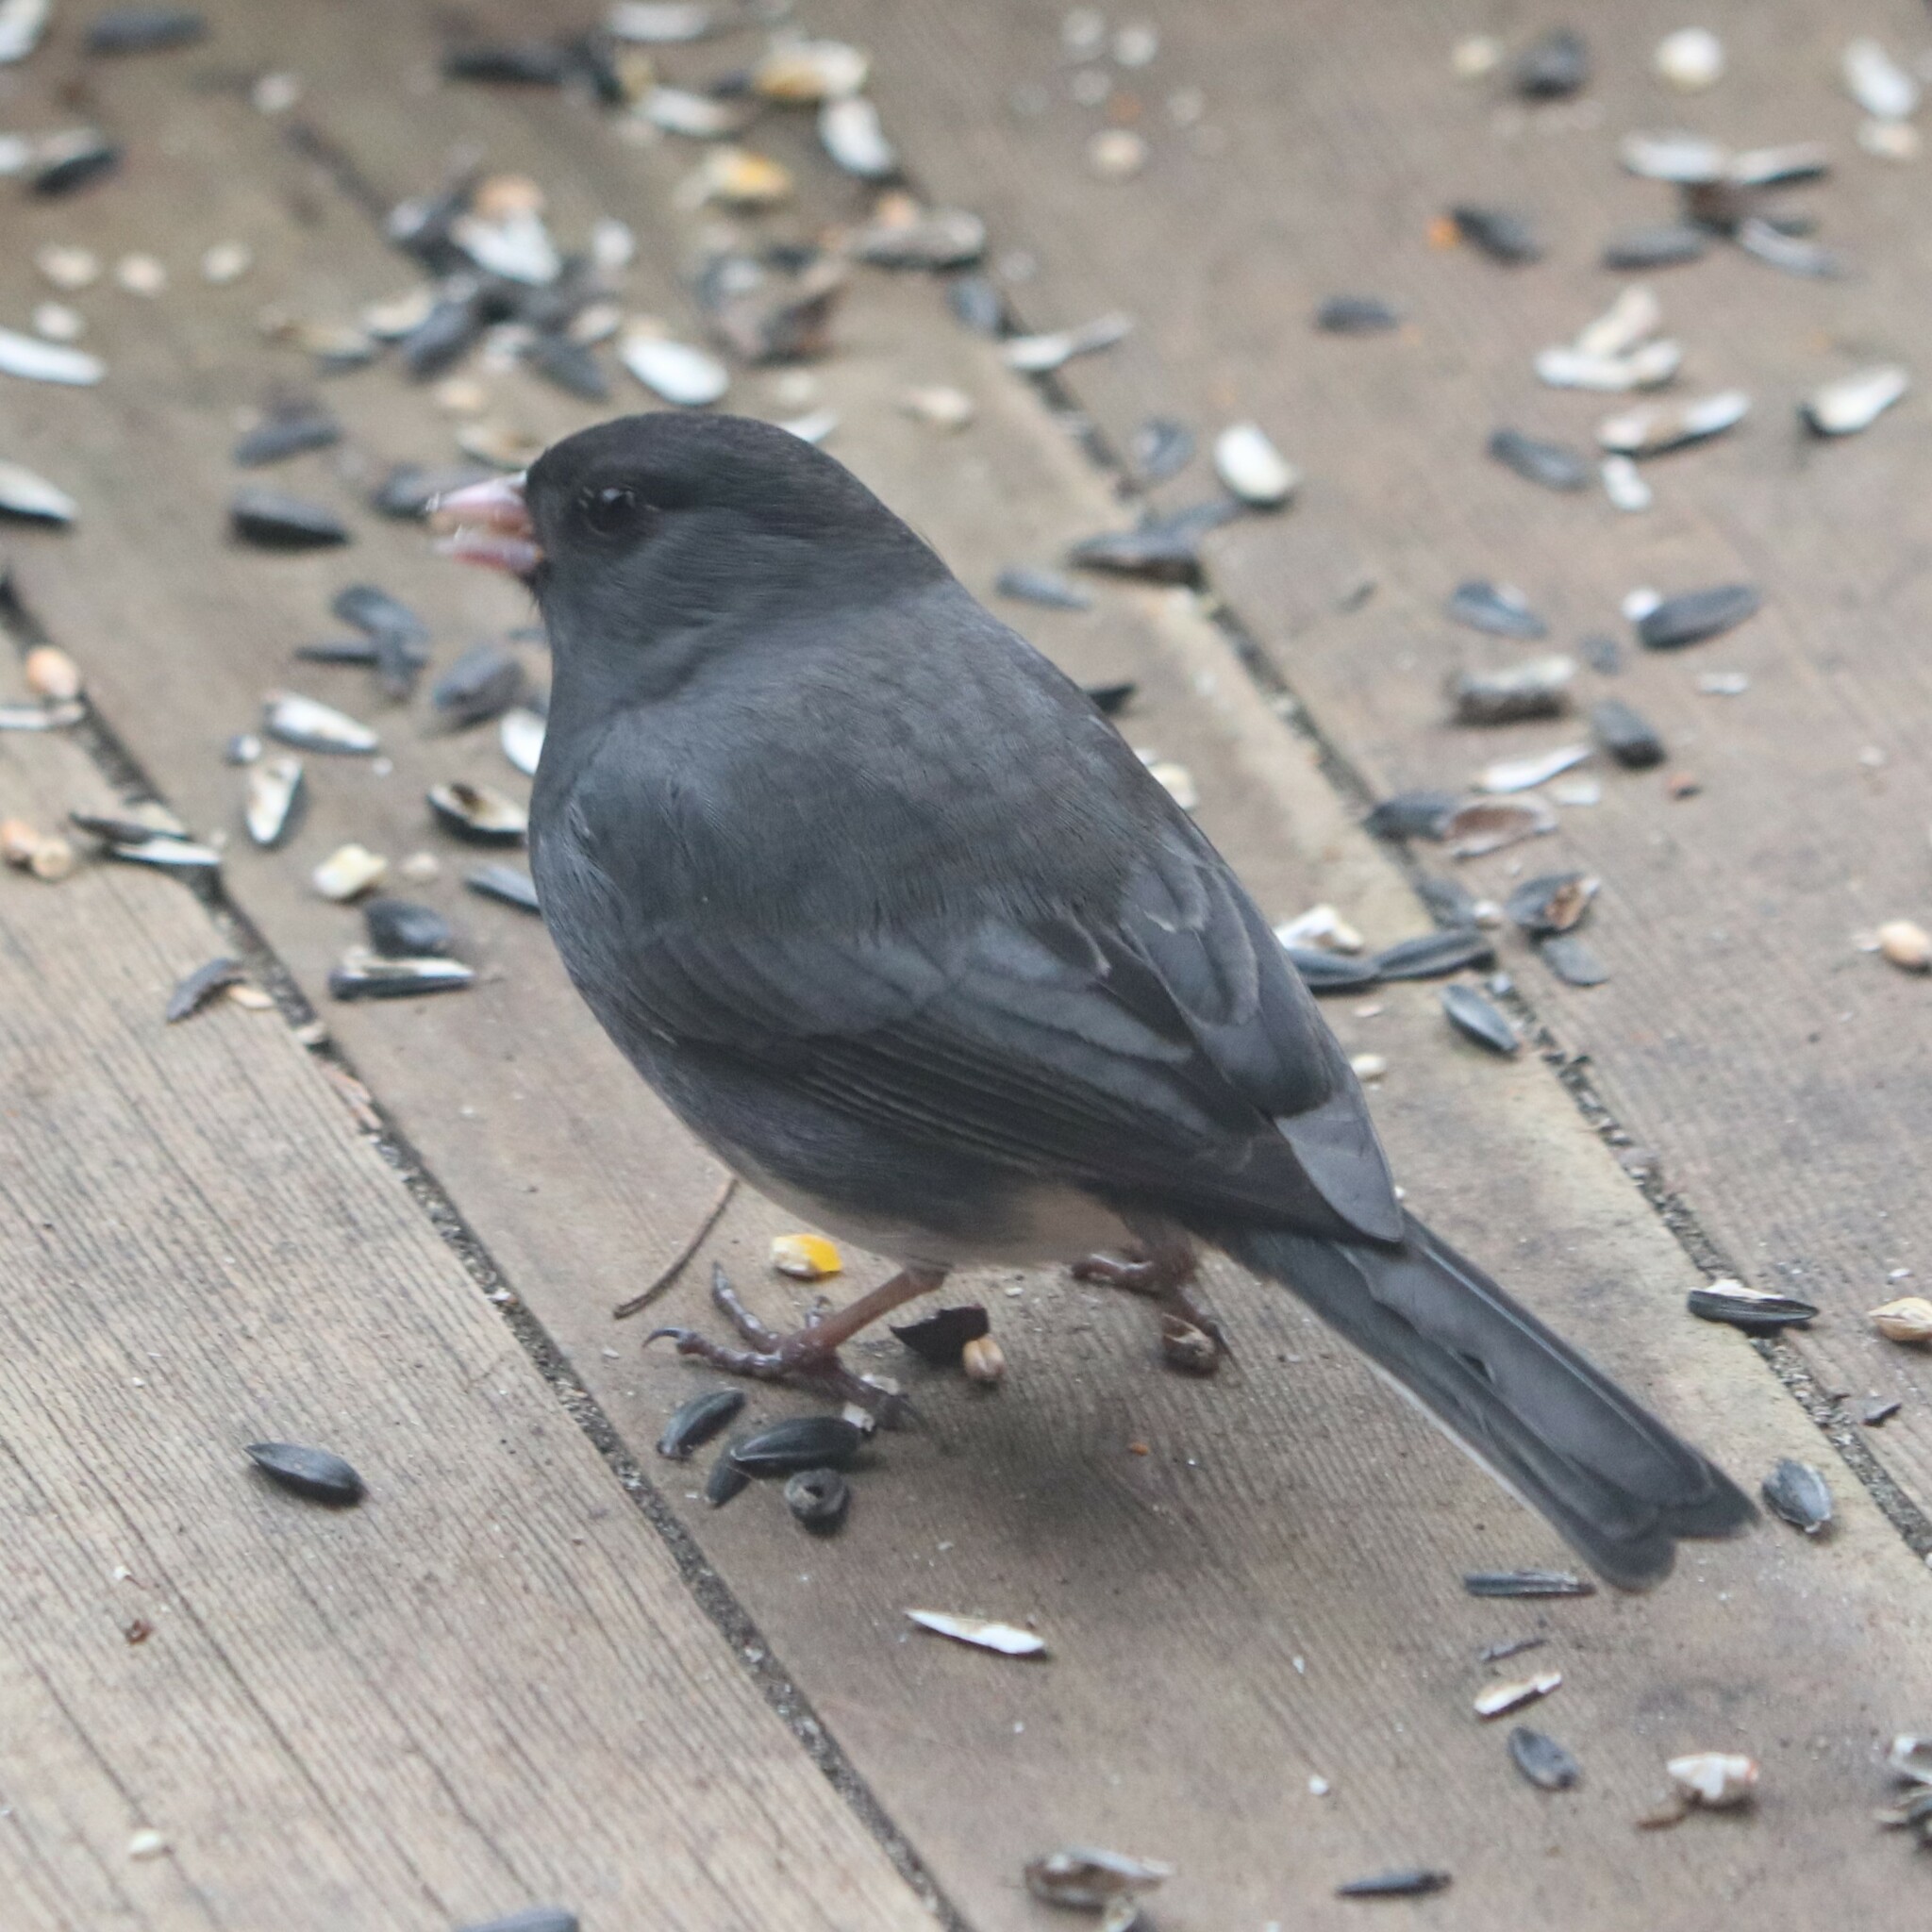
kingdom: Animalia
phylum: Chordata
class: Aves
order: Passeriformes
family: Passerellidae
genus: Junco
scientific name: Junco hyemalis
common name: Dark-eyed junco
